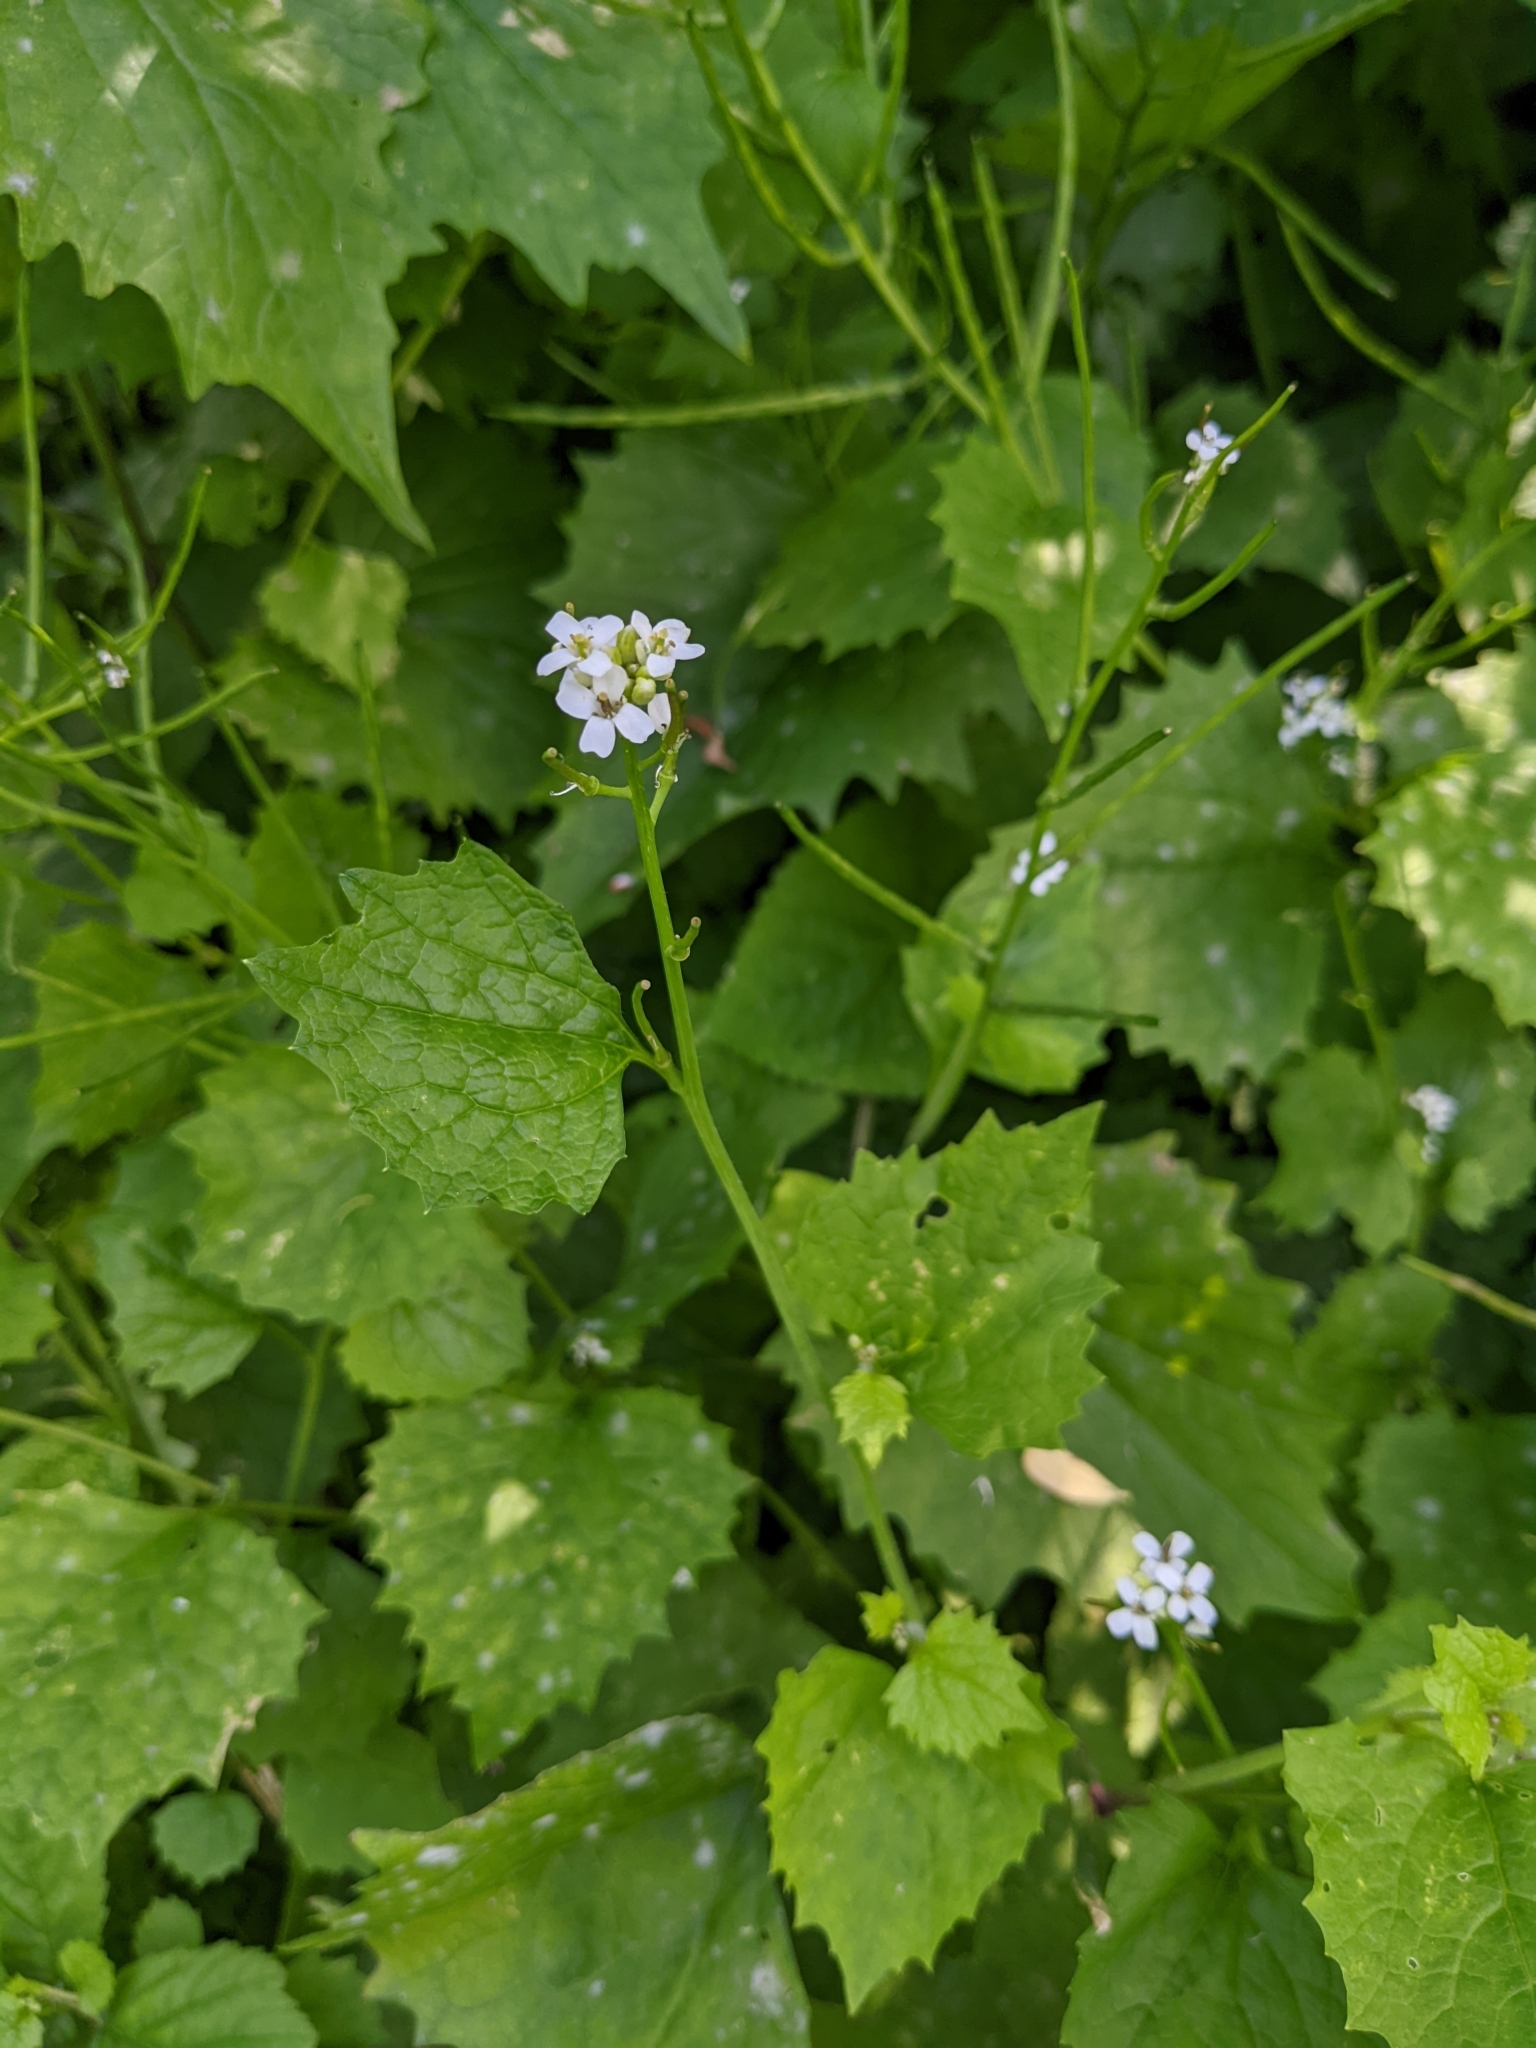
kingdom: Plantae
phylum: Tracheophyta
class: Magnoliopsida
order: Brassicales
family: Brassicaceae
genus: Alliaria
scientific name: Alliaria petiolata
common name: Garlic mustard
